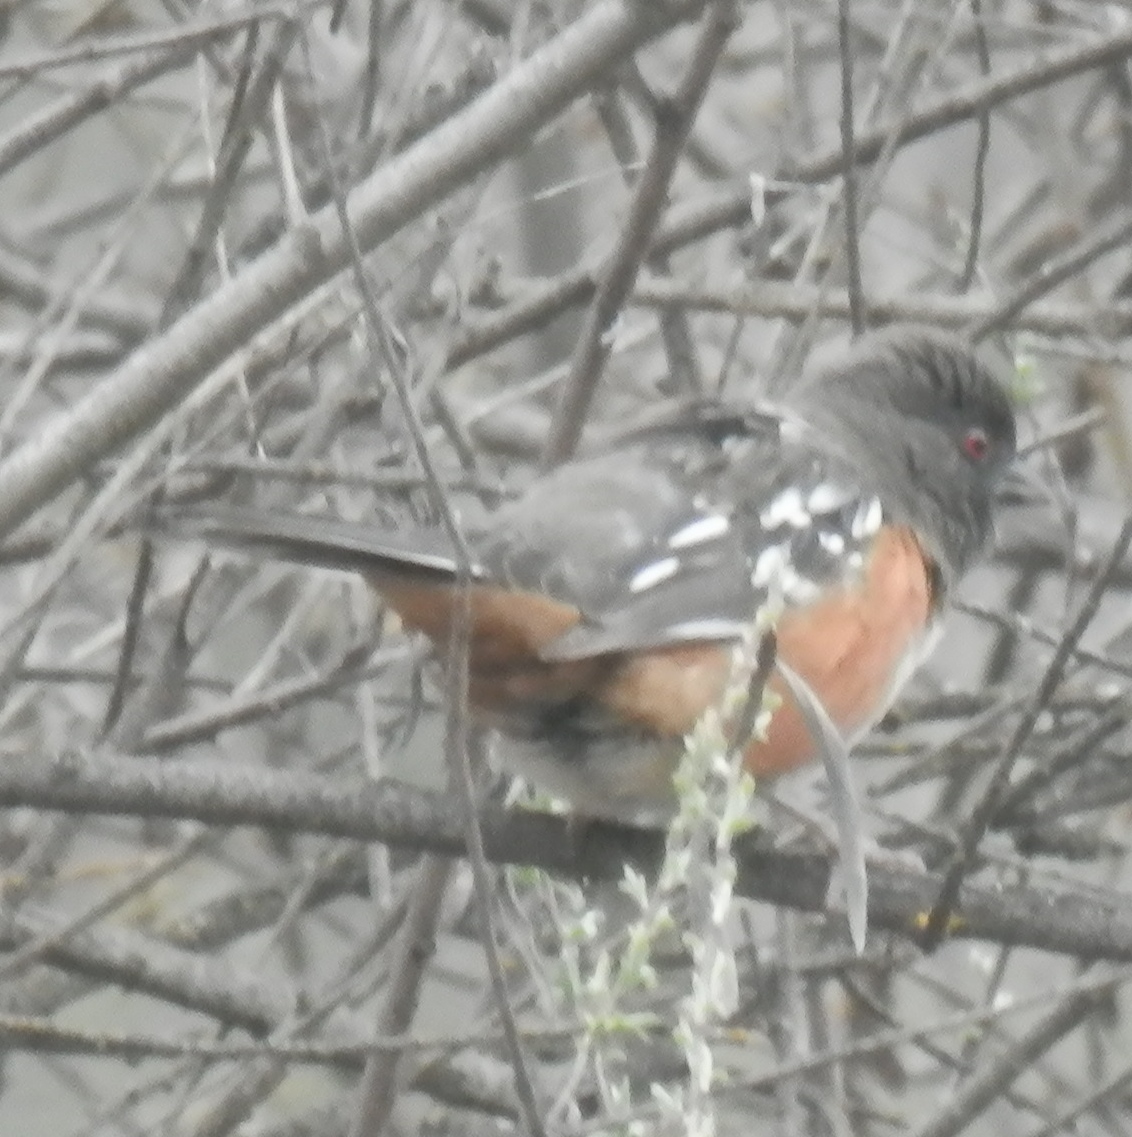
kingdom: Animalia
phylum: Chordata
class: Aves
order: Passeriformes
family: Passerellidae
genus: Pipilo
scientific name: Pipilo maculatus
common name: Spotted towhee
